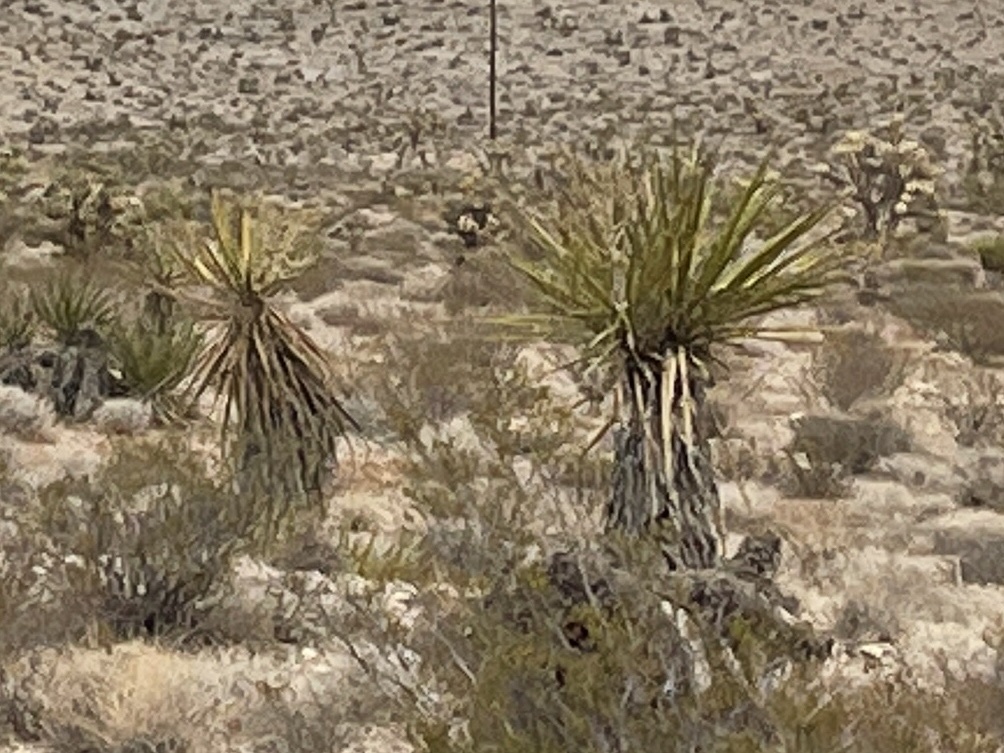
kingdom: Plantae
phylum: Tracheophyta
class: Liliopsida
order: Asparagales
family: Asparagaceae
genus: Yucca
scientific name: Yucca schidigera
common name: Mojave yucca
